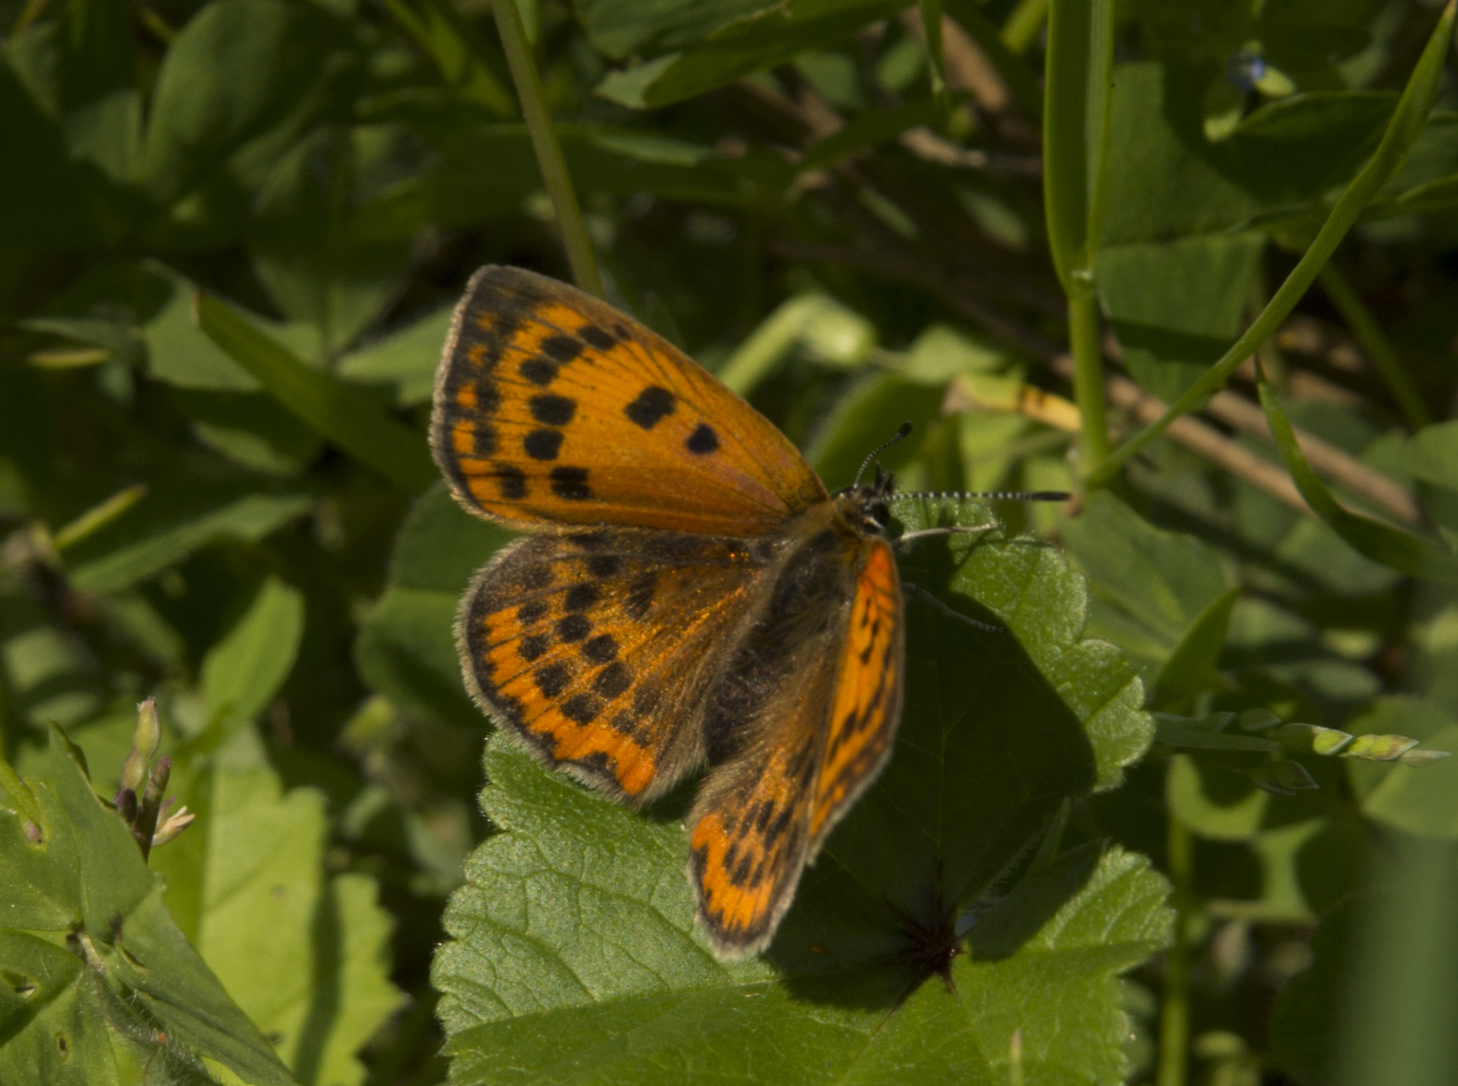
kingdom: Animalia
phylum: Arthropoda
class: Insecta
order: Lepidoptera
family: Lycaenidae
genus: Polyommatus
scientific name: Polyommatus ottomanus
